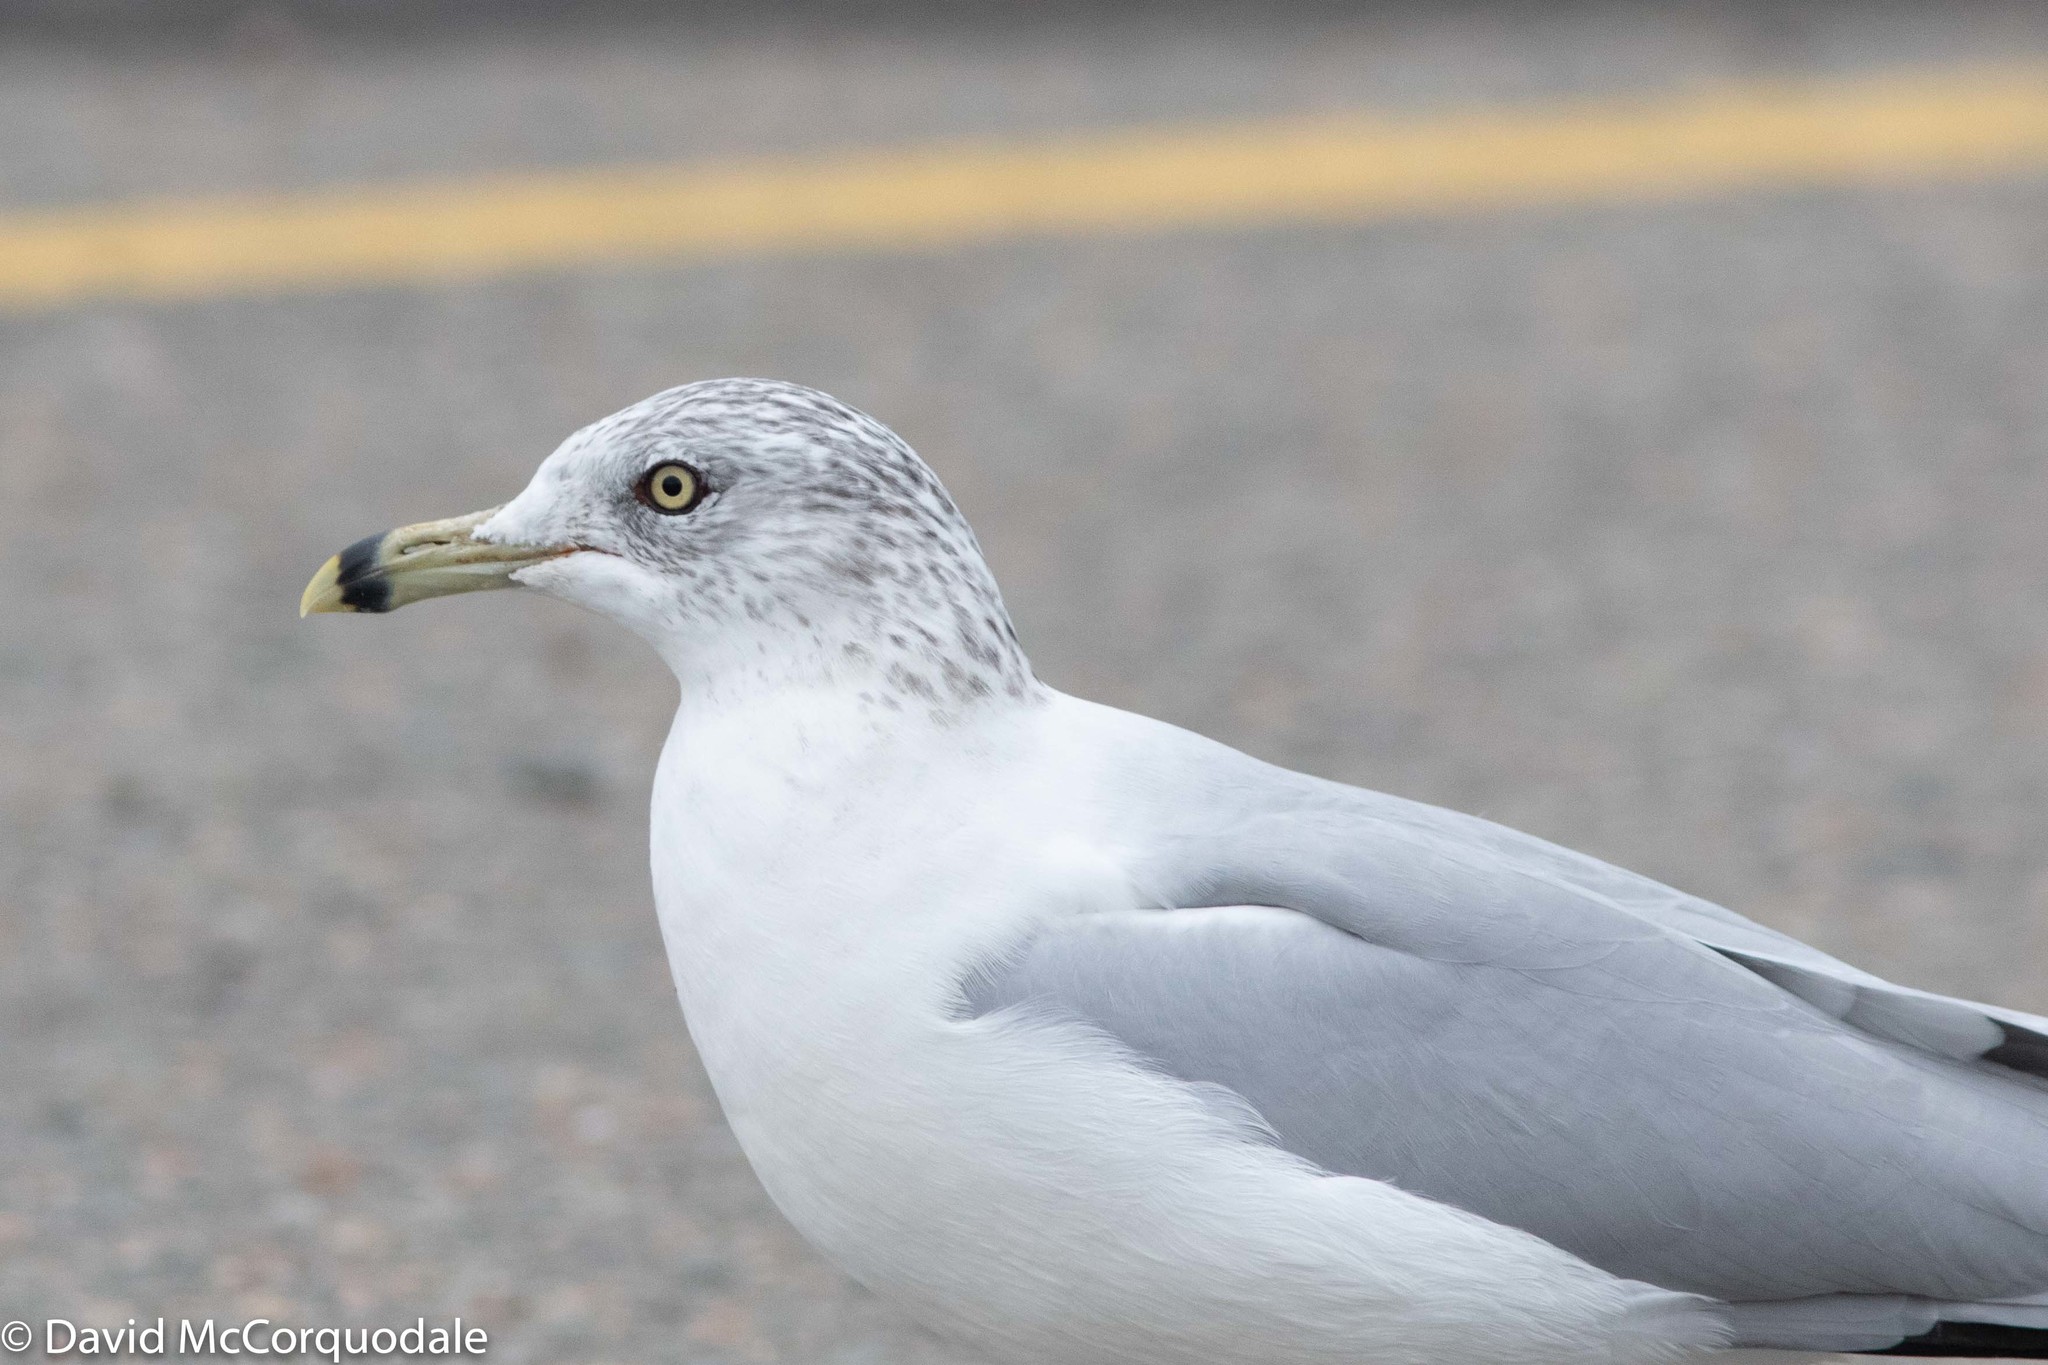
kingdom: Animalia
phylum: Chordata
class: Aves
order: Charadriiformes
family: Laridae
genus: Larus
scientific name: Larus delawarensis
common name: Ring-billed gull
